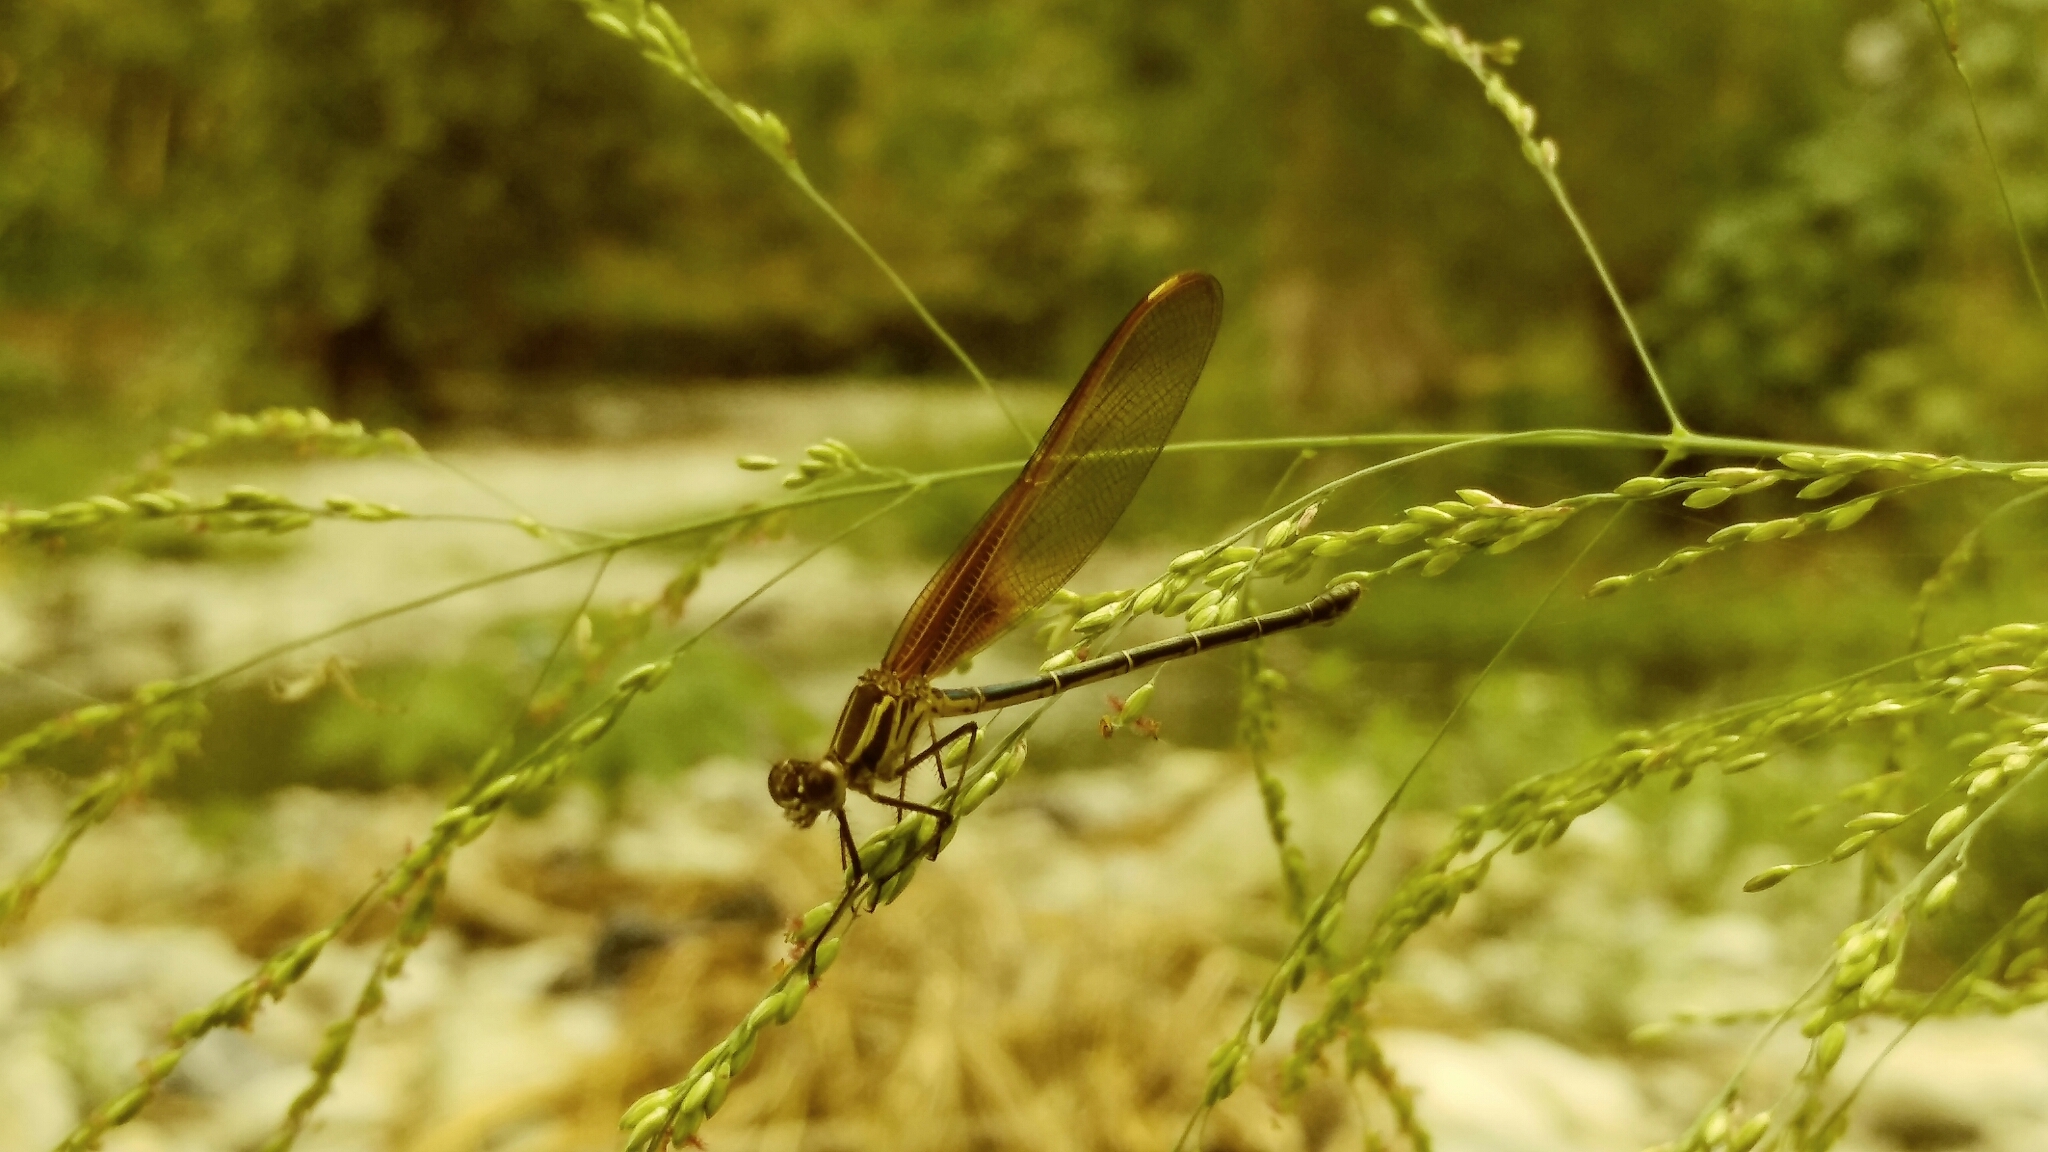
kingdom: Animalia
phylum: Arthropoda
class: Insecta
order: Odonata
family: Calopterygidae
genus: Hetaerina
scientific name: Hetaerina americana
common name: American rubyspot
